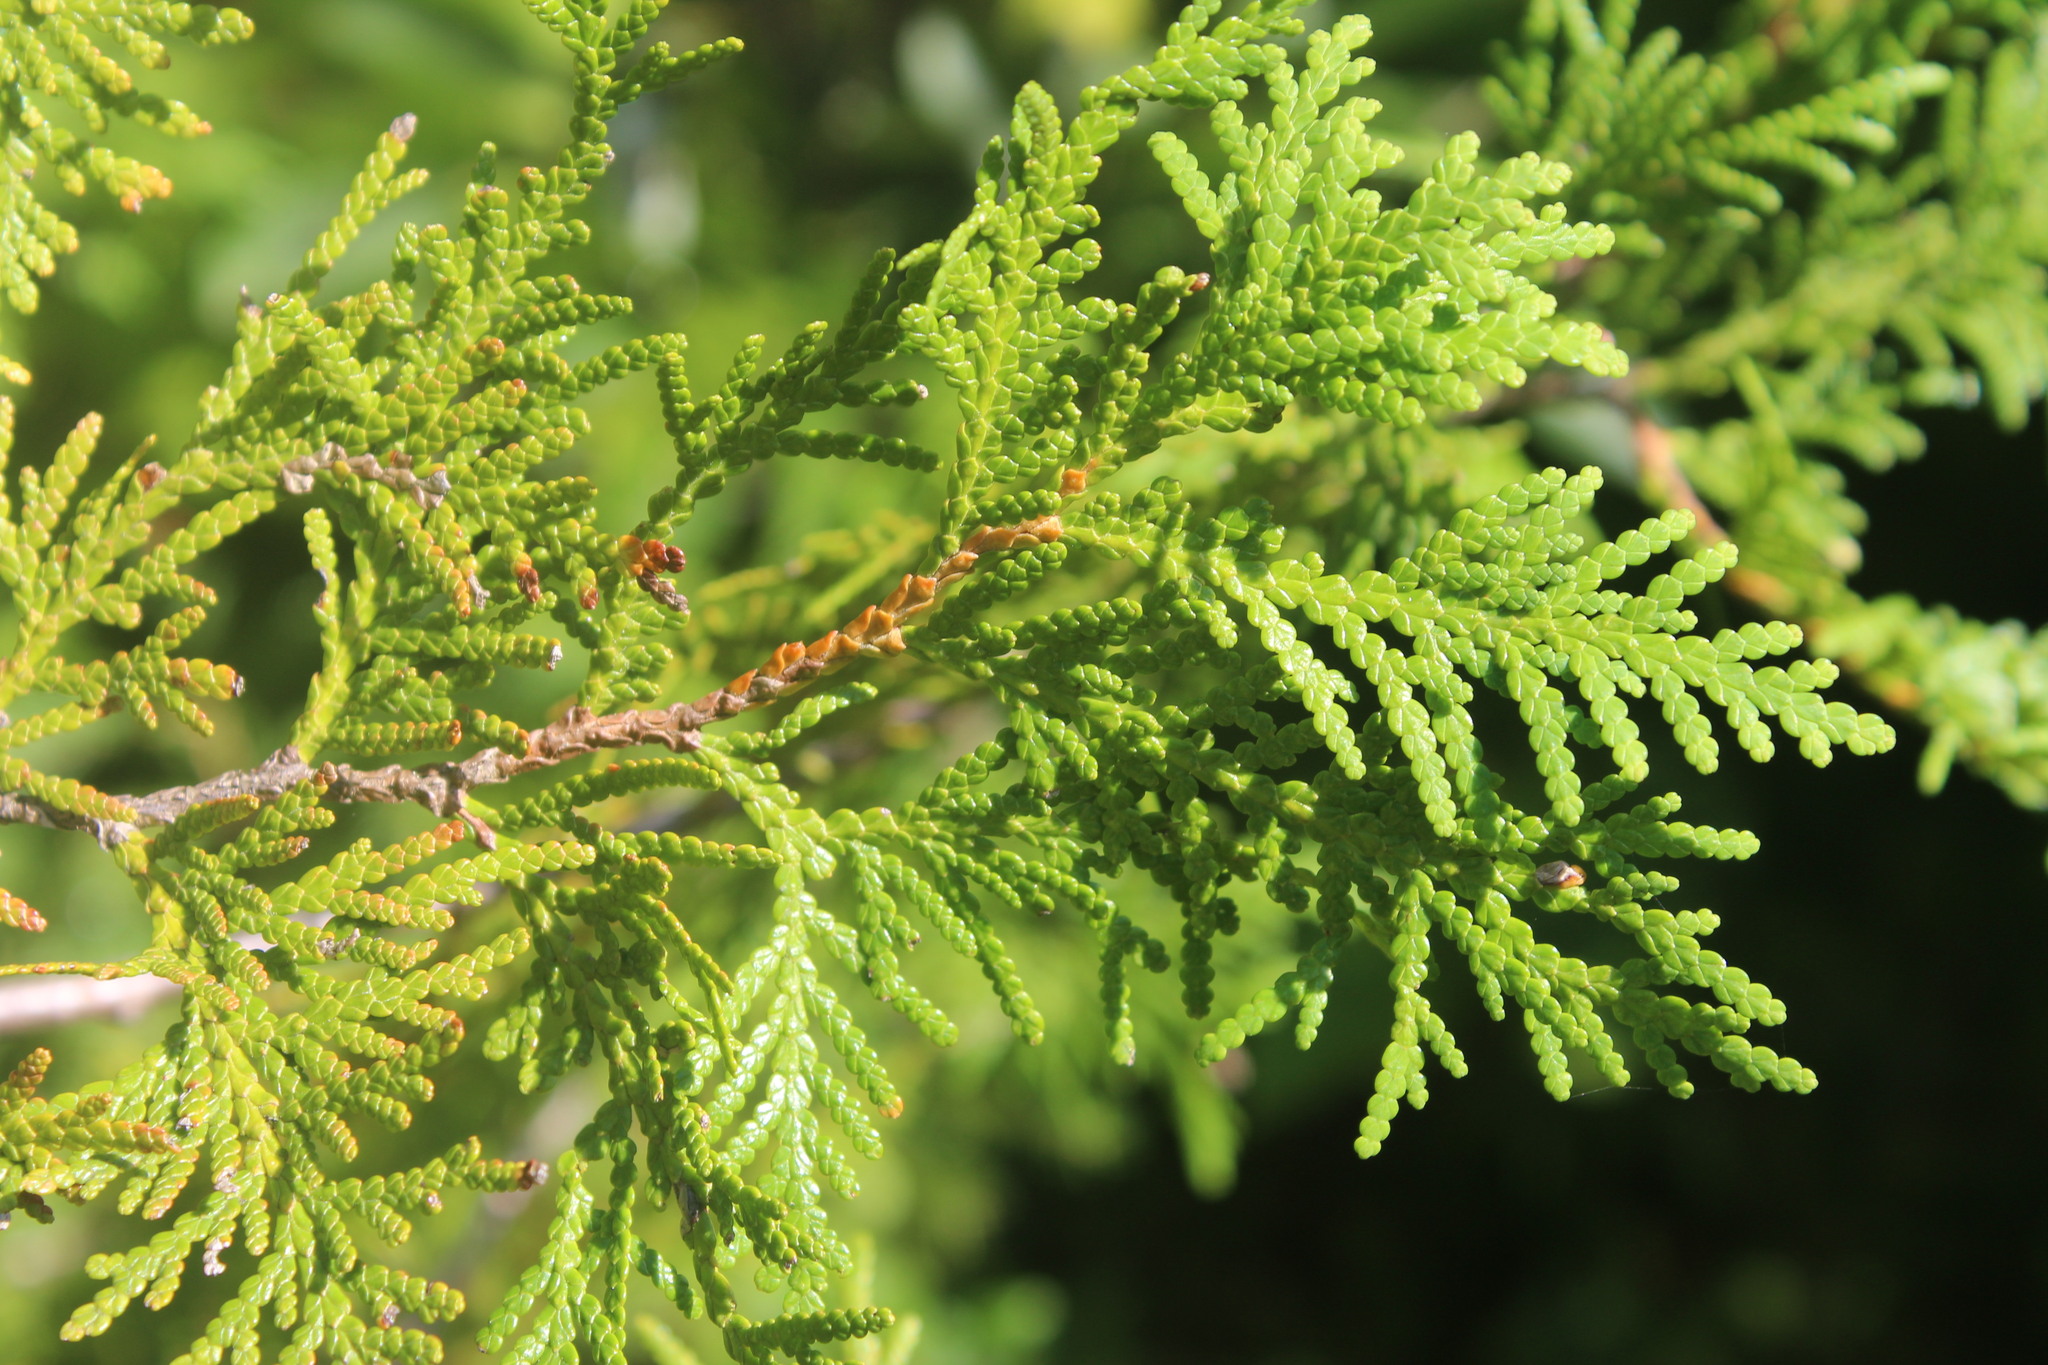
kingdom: Plantae
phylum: Tracheophyta
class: Pinopsida
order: Pinales
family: Cupressaceae
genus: Thuja
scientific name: Thuja occidentalis
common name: Northern white-cedar
